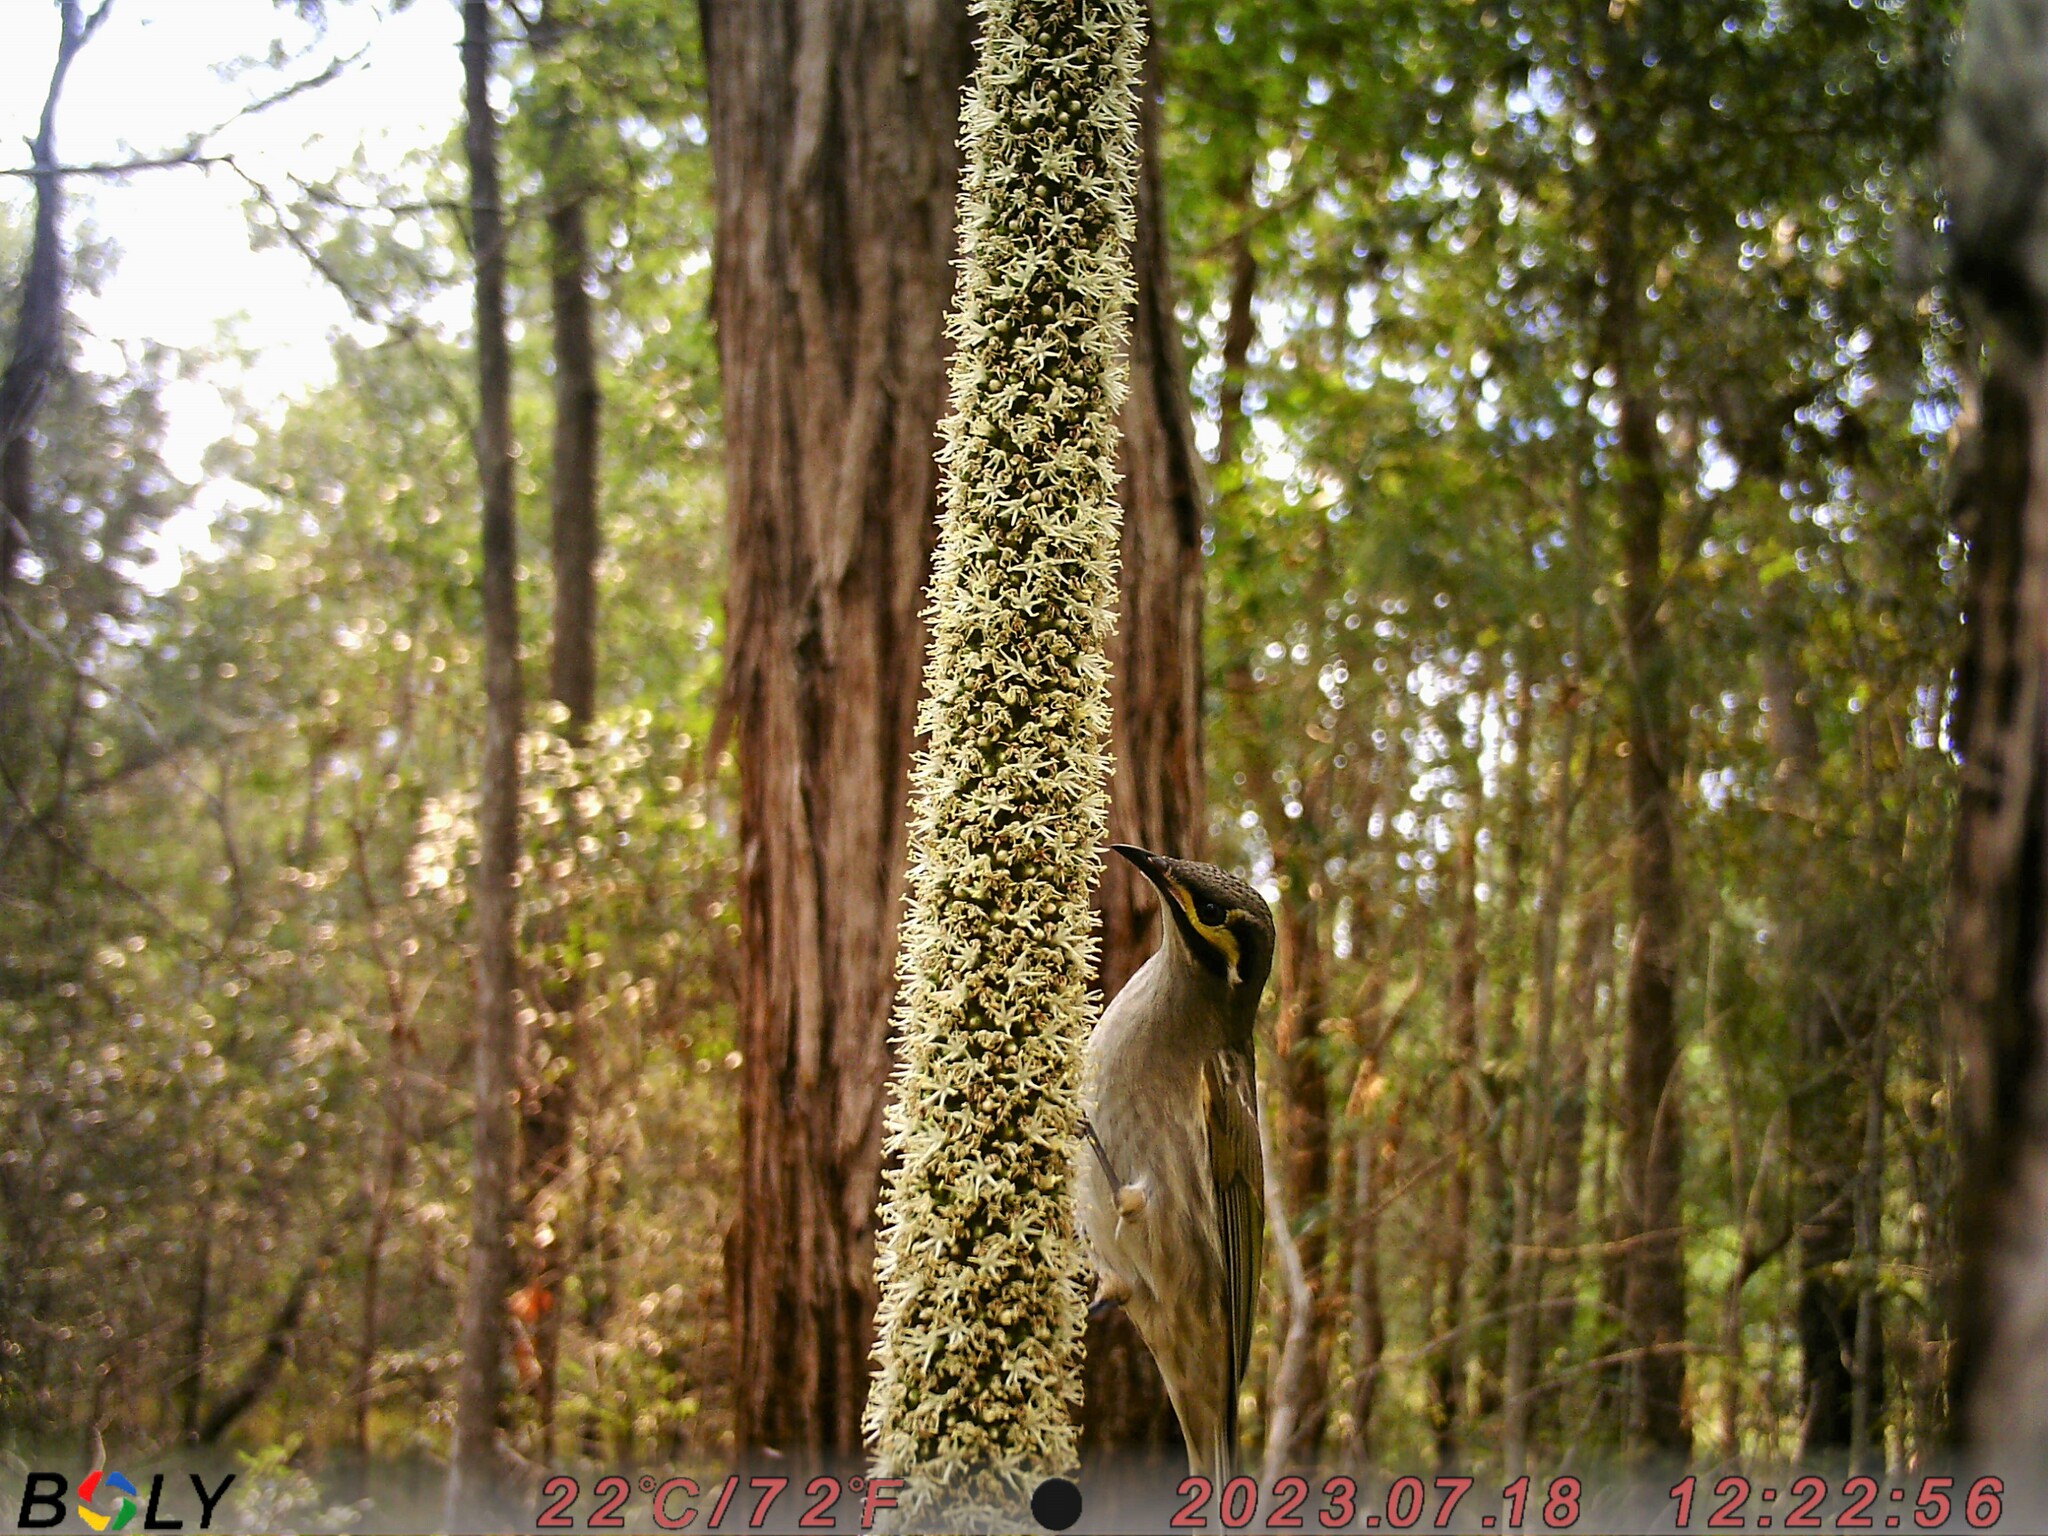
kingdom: Animalia
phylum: Chordata
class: Aves
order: Passeriformes
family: Meliphagidae
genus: Caligavis
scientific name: Caligavis chrysops
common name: Yellow-faced honeyeater
